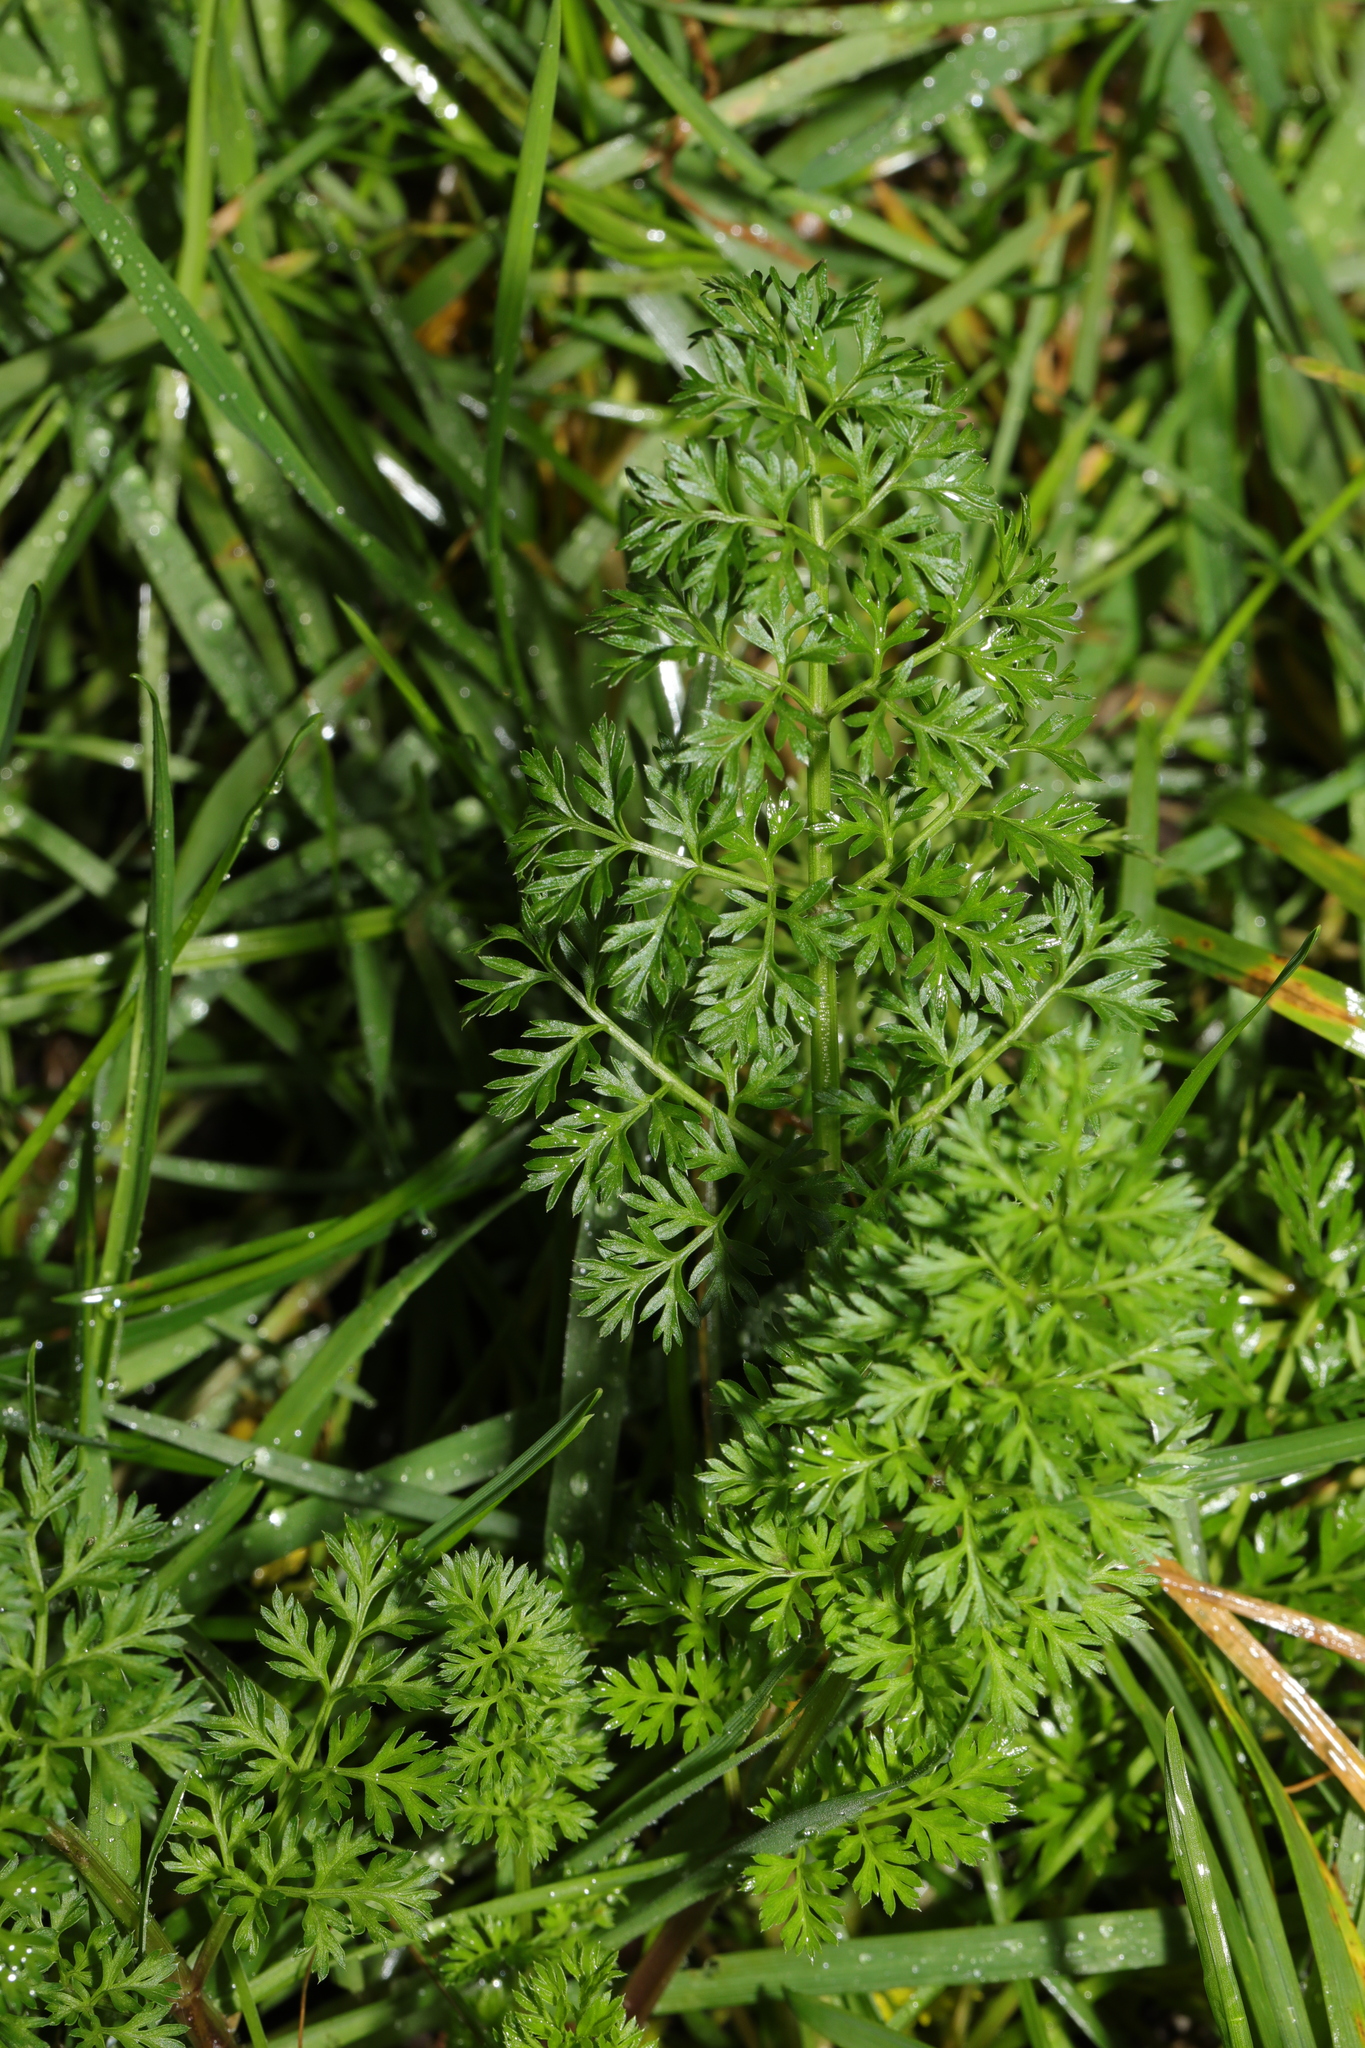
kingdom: Plantae
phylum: Tracheophyta
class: Magnoliopsida
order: Apiales
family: Apiaceae
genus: Daucus
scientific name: Daucus carota
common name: Wild carrot
